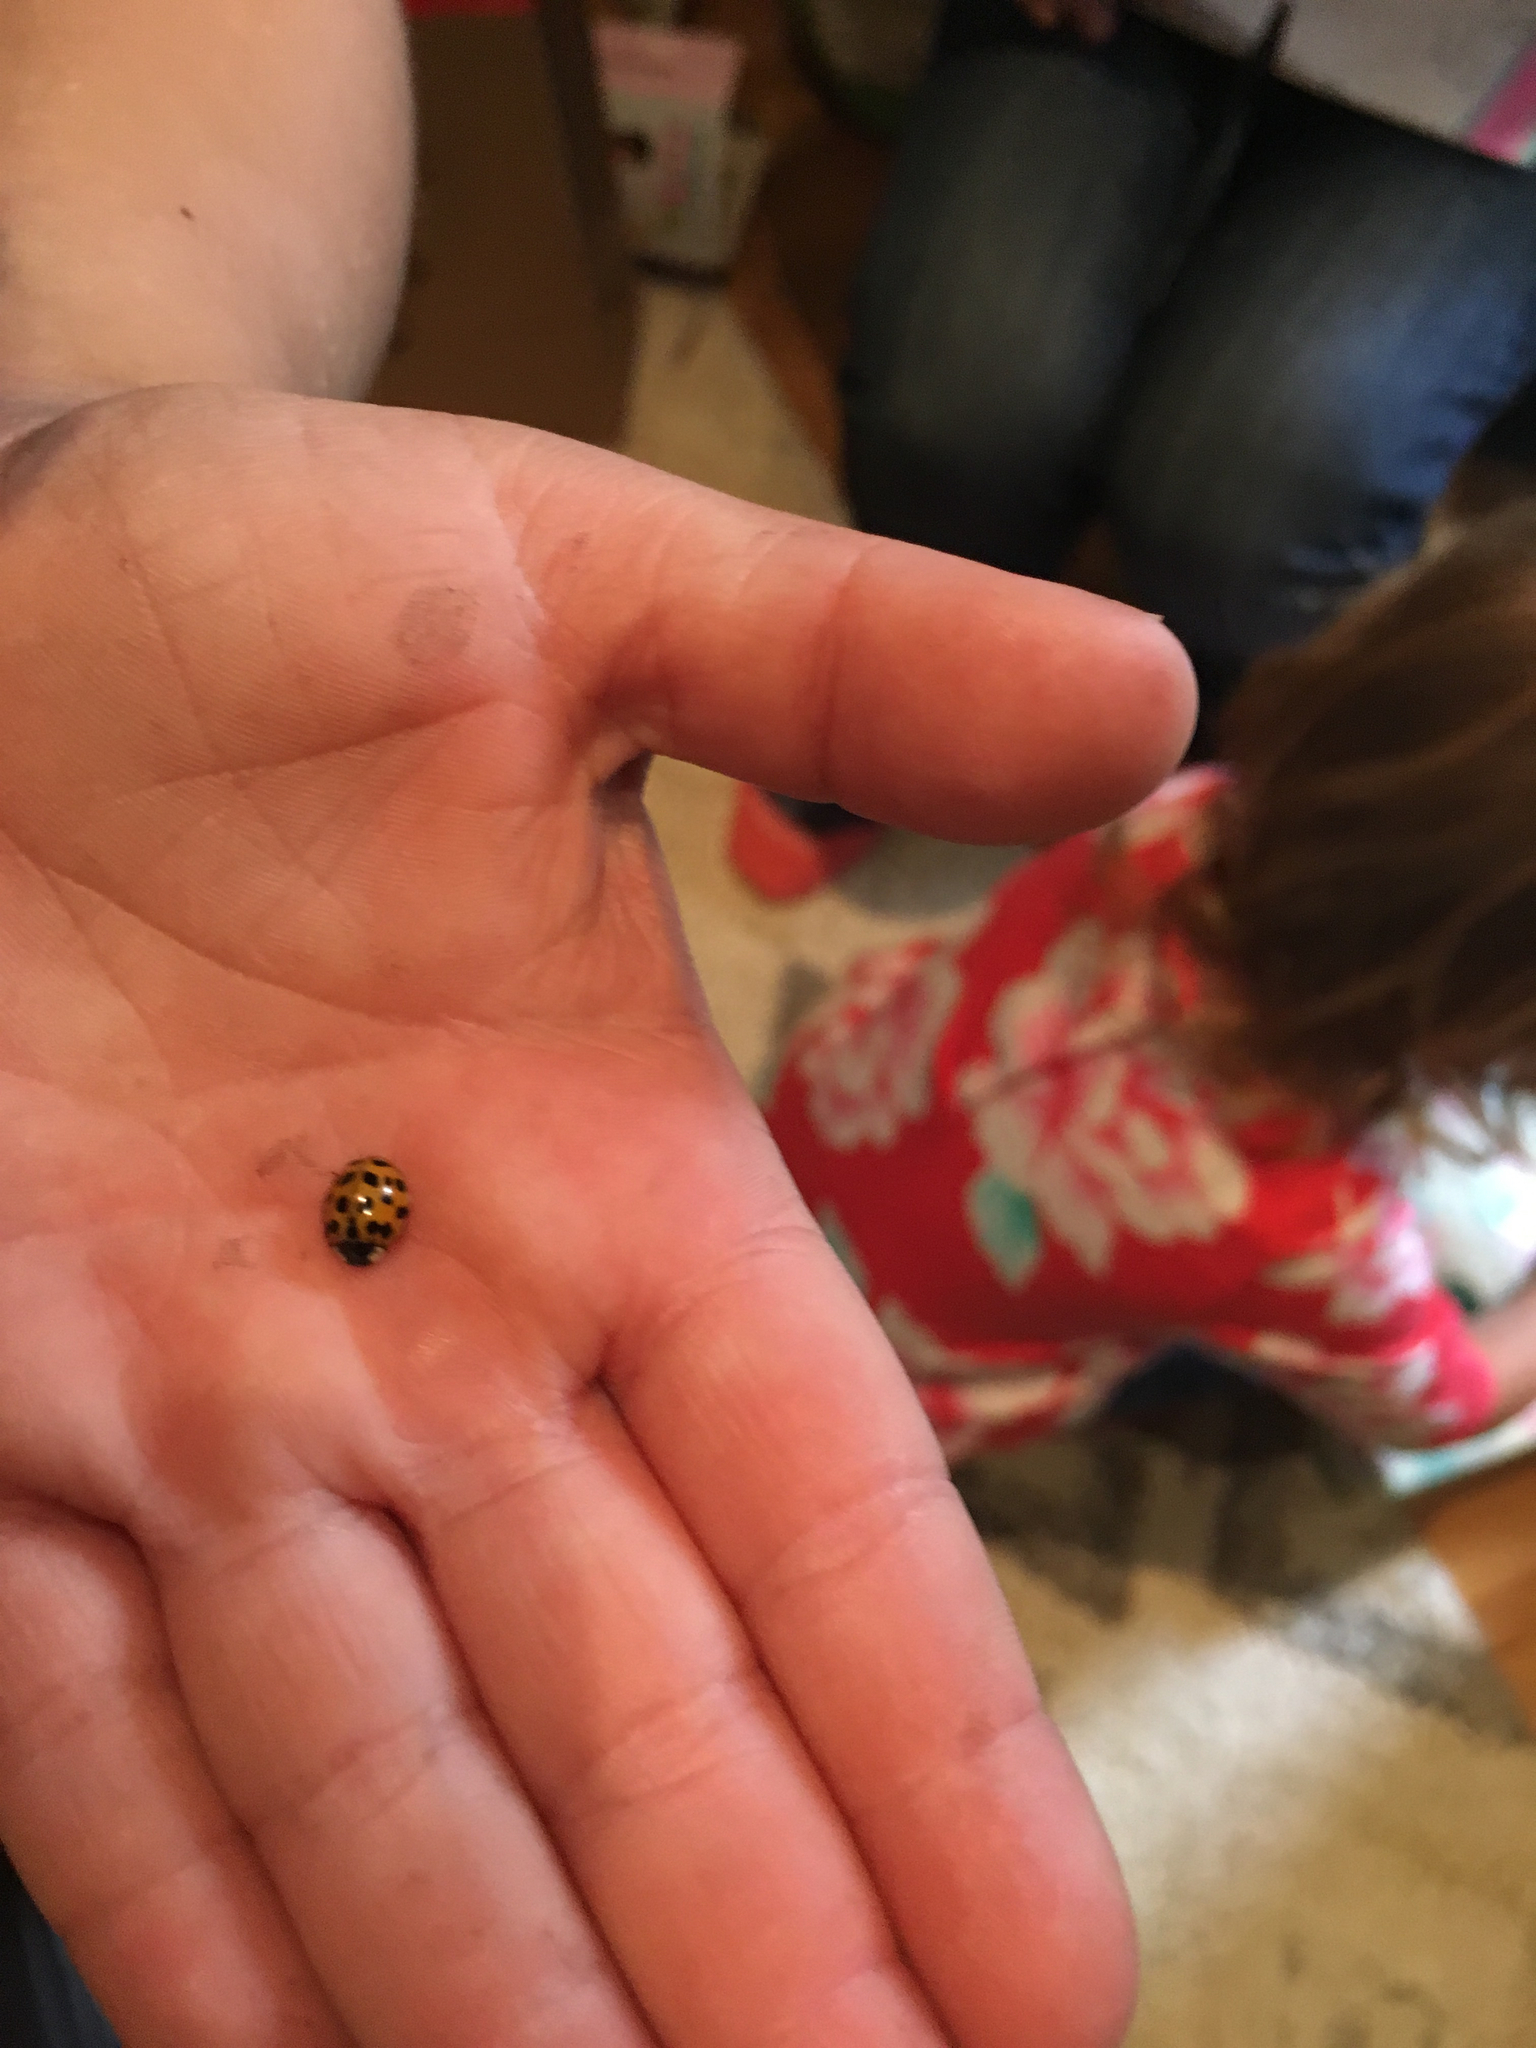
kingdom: Animalia
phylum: Arthropoda
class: Insecta
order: Coleoptera
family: Coccinellidae
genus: Harmonia
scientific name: Harmonia axyridis
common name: Harlequin ladybird
